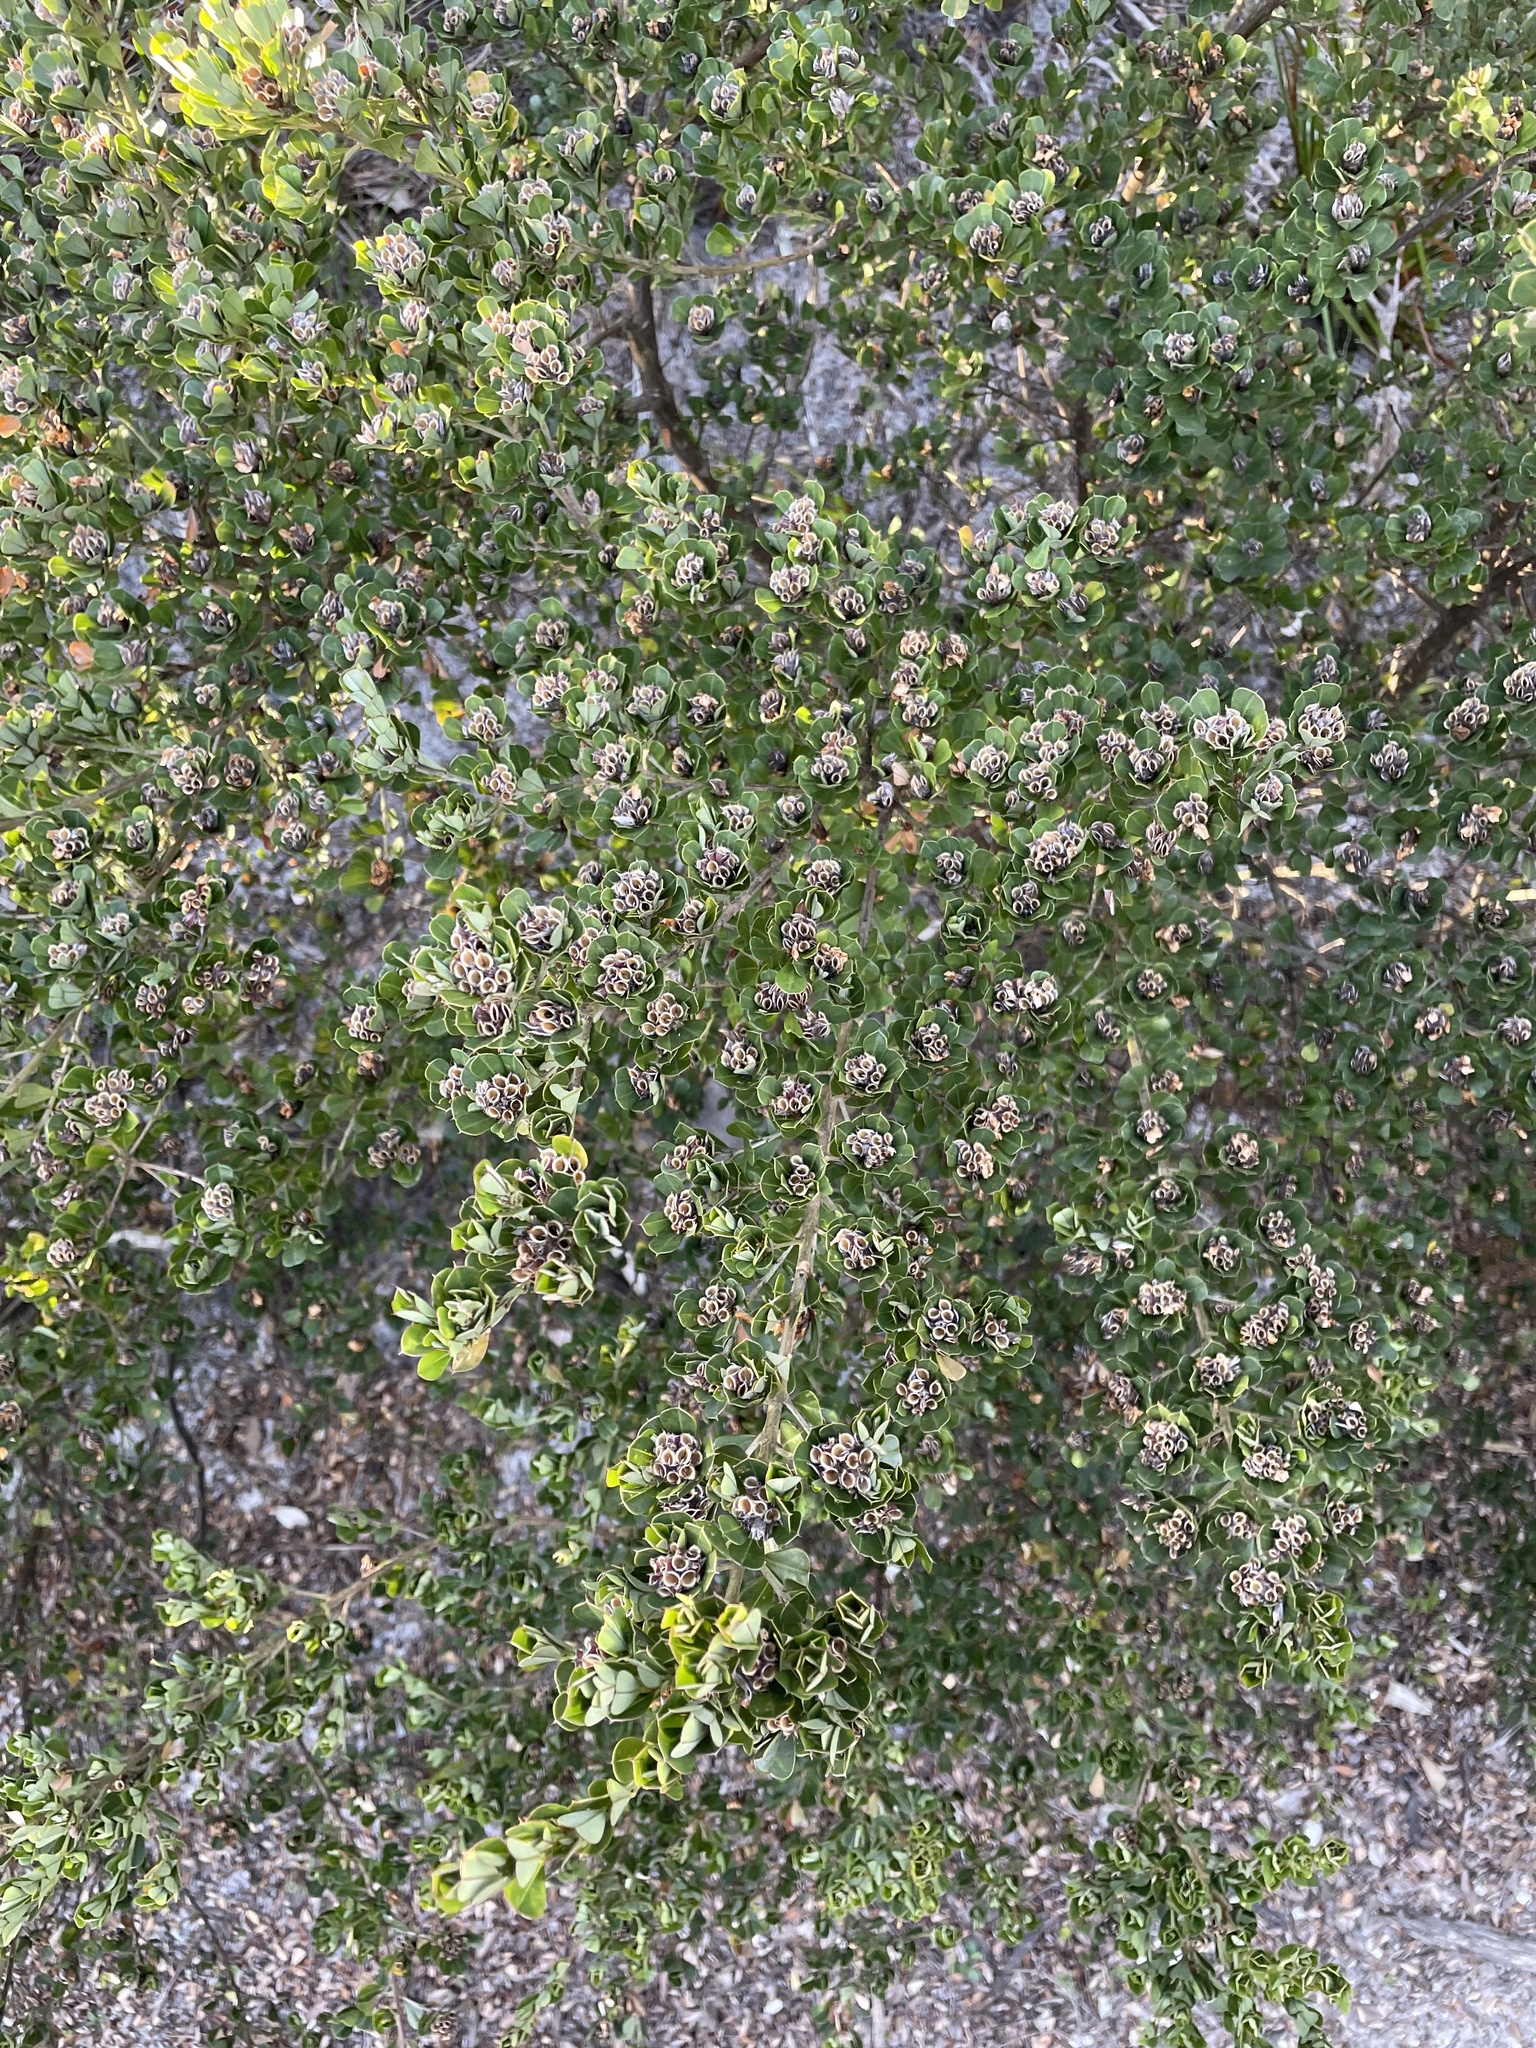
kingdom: Plantae
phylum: Tracheophyta
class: Magnoliopsida
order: Fabales
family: Fabaceae
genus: Pultenaea
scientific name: Pultenaea daphnoides
